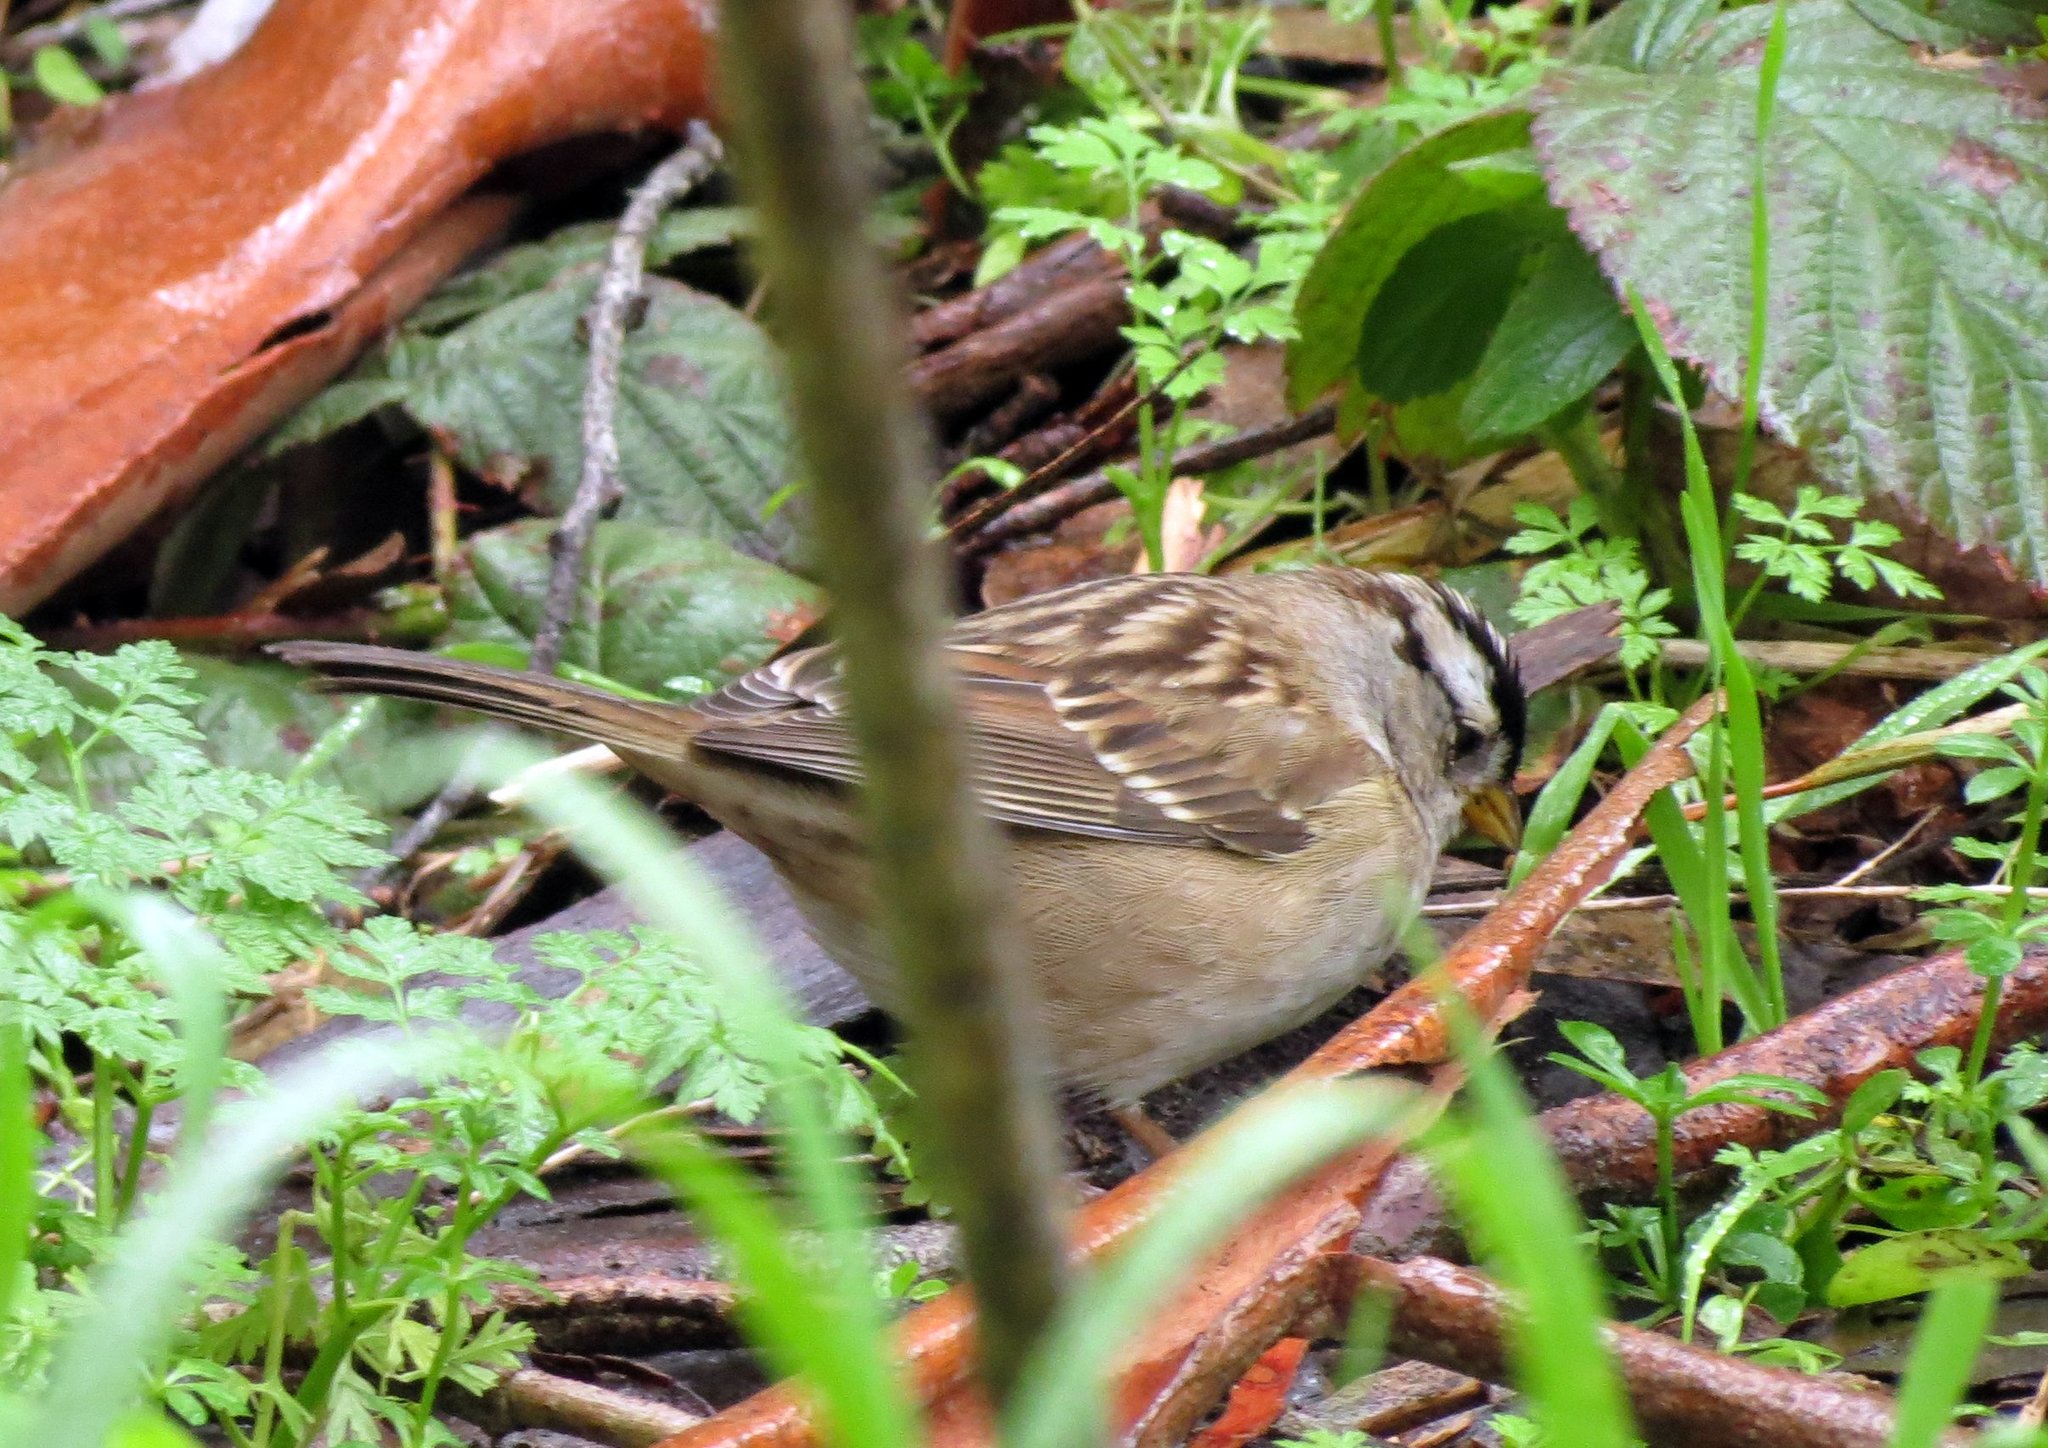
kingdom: Animalia
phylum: Chordata
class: Aves
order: Passeriformes
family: Passerellidae
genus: Zonotrichia
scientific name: Zonotrichia leucophrys
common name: White-crowned sparrow
